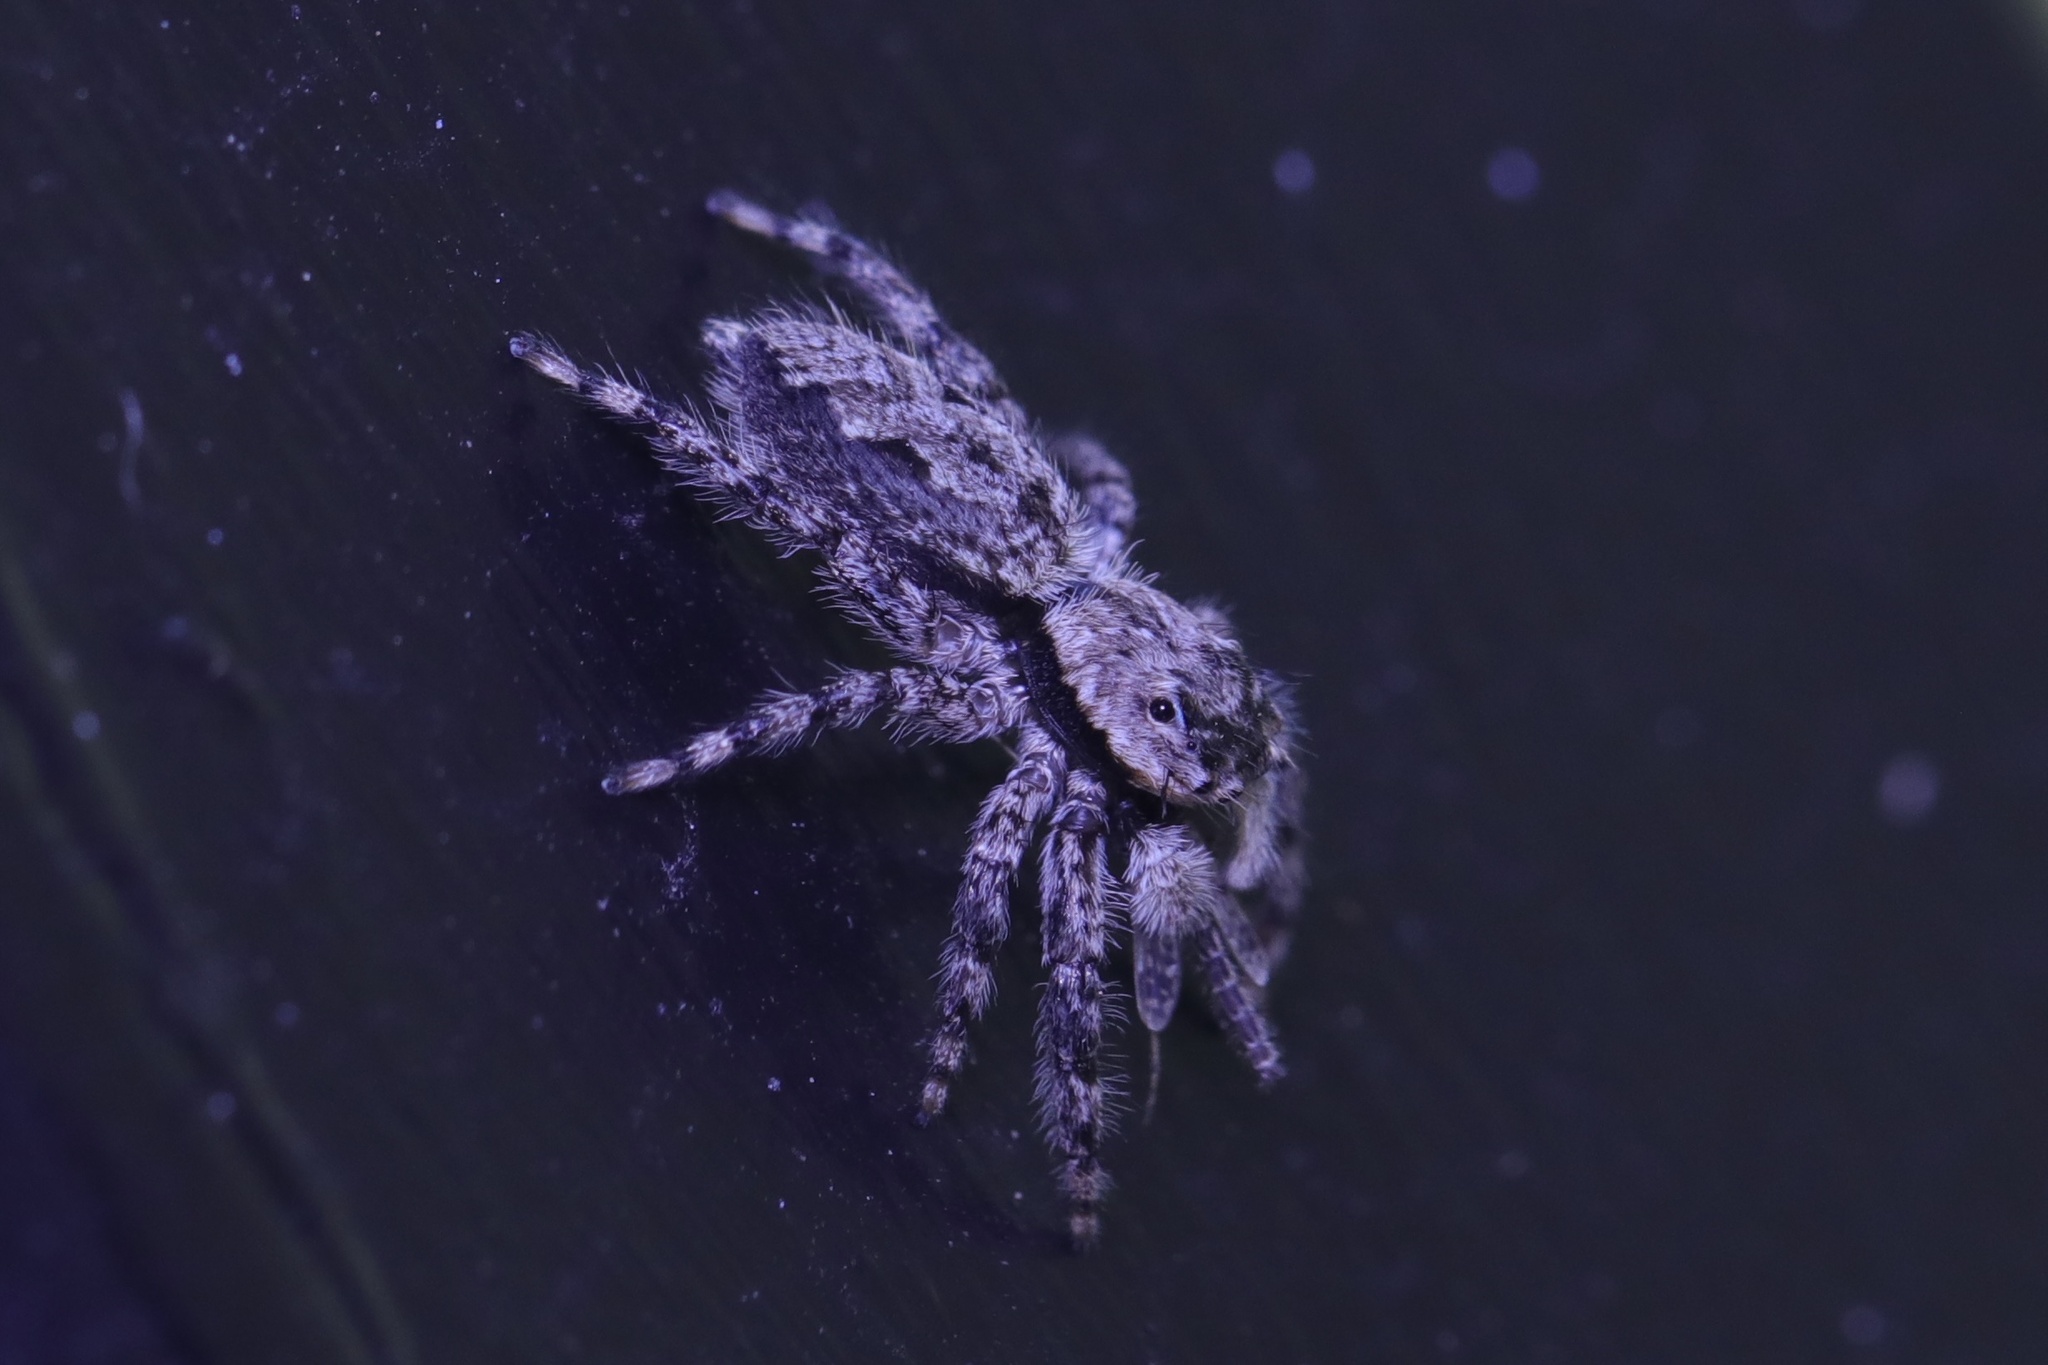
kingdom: Animalia
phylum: Arthropoda
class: Arachnida
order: Araneae
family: Salticidae
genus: Platycryptus
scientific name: Platycryptus undatus
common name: Tan jumping spider
